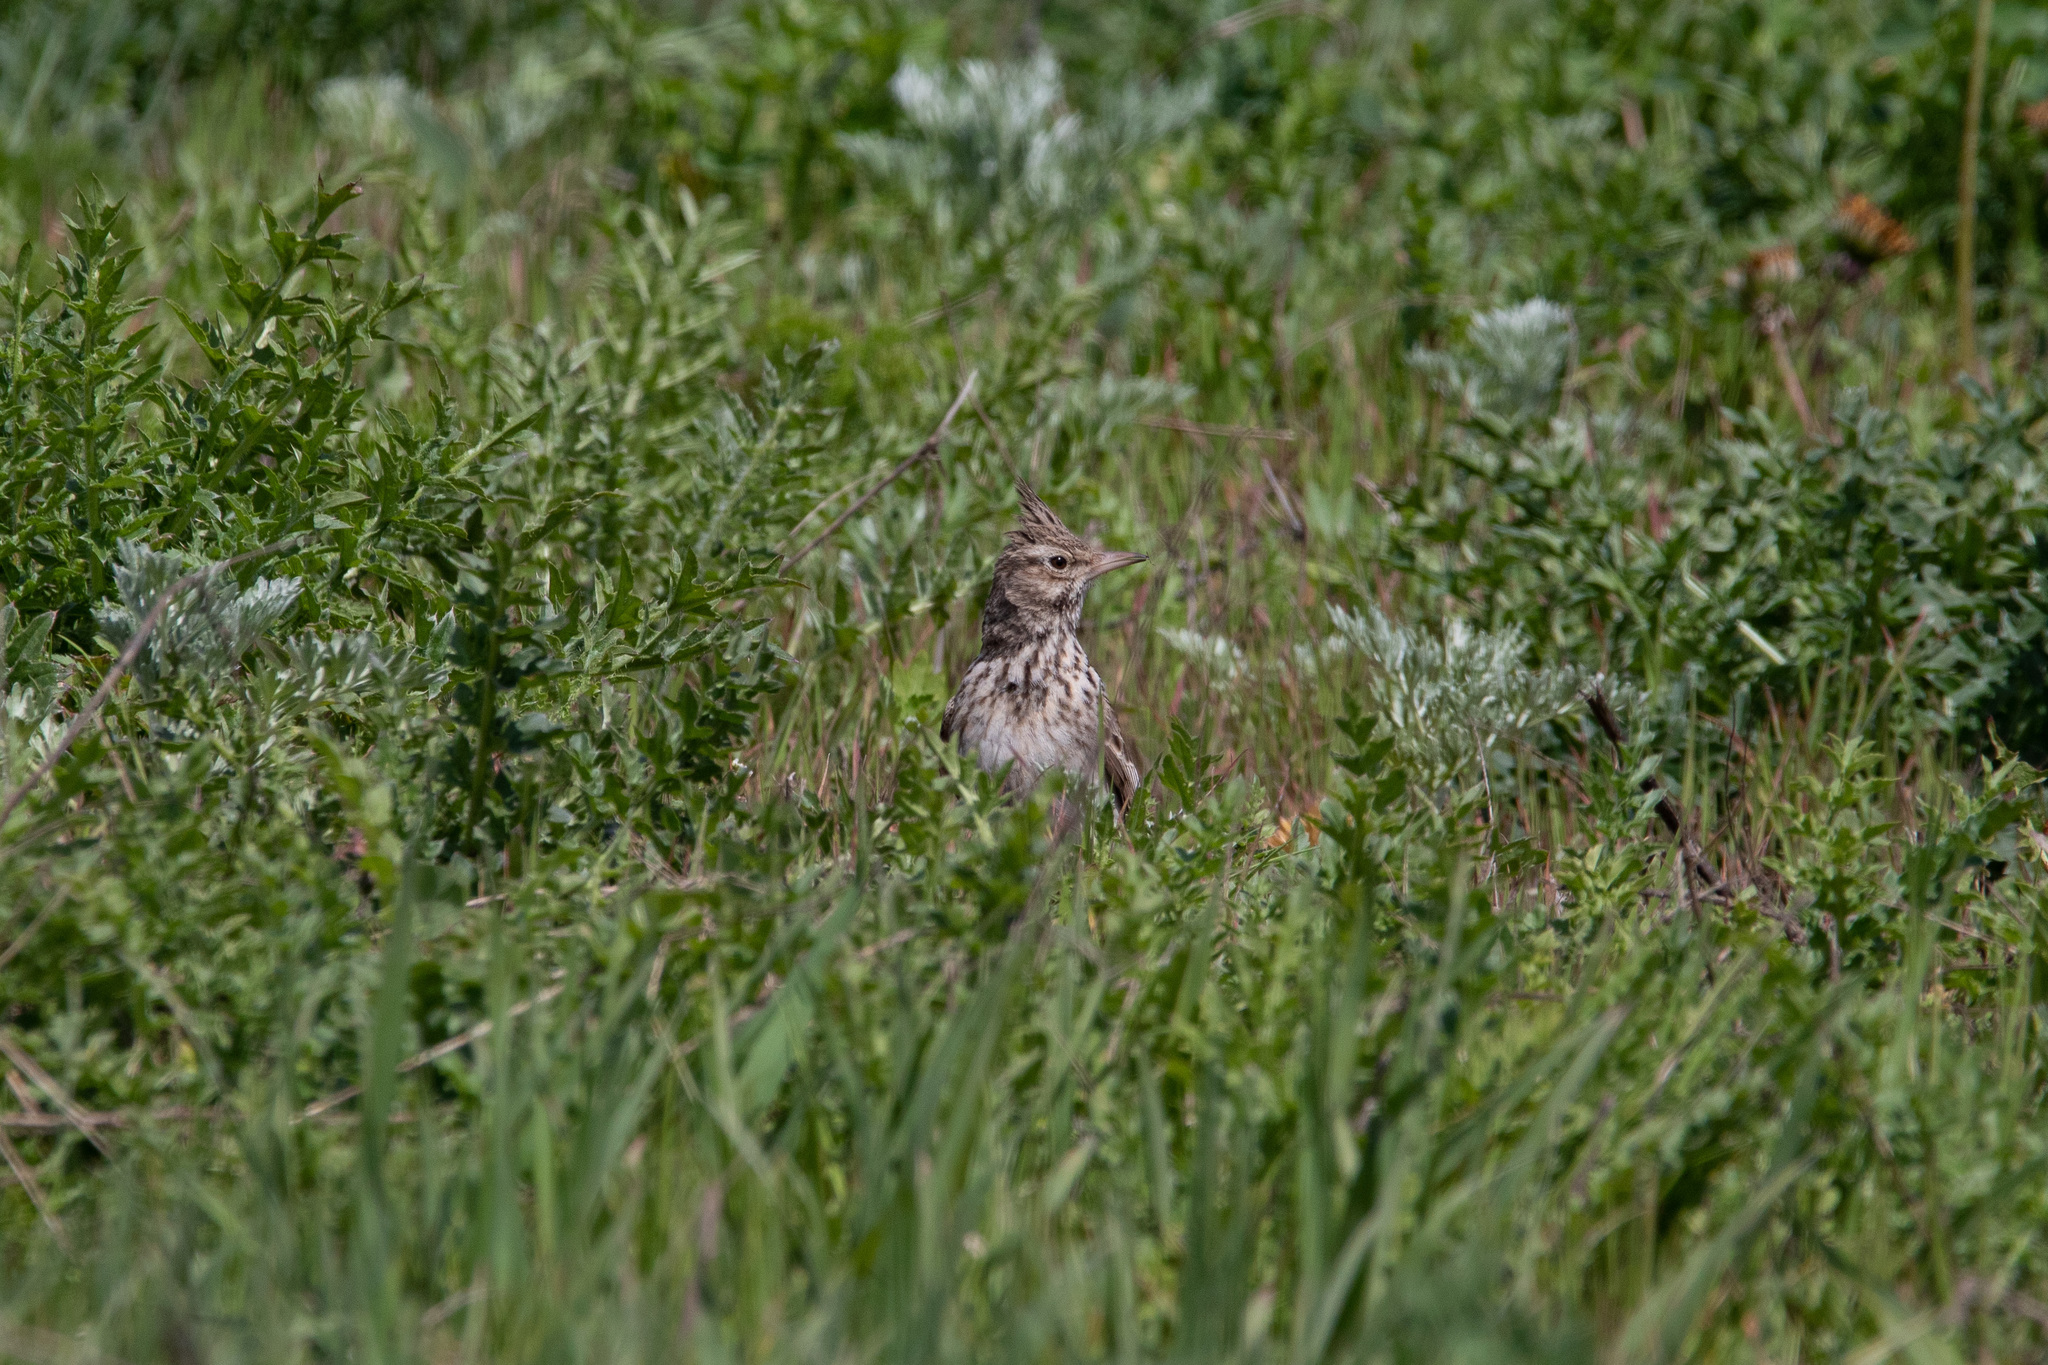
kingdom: Animalia
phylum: Chordata
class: Aves
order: Passeriformes
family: Alaudidae
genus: Galerida
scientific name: Galerida cristata
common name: Crested lark
